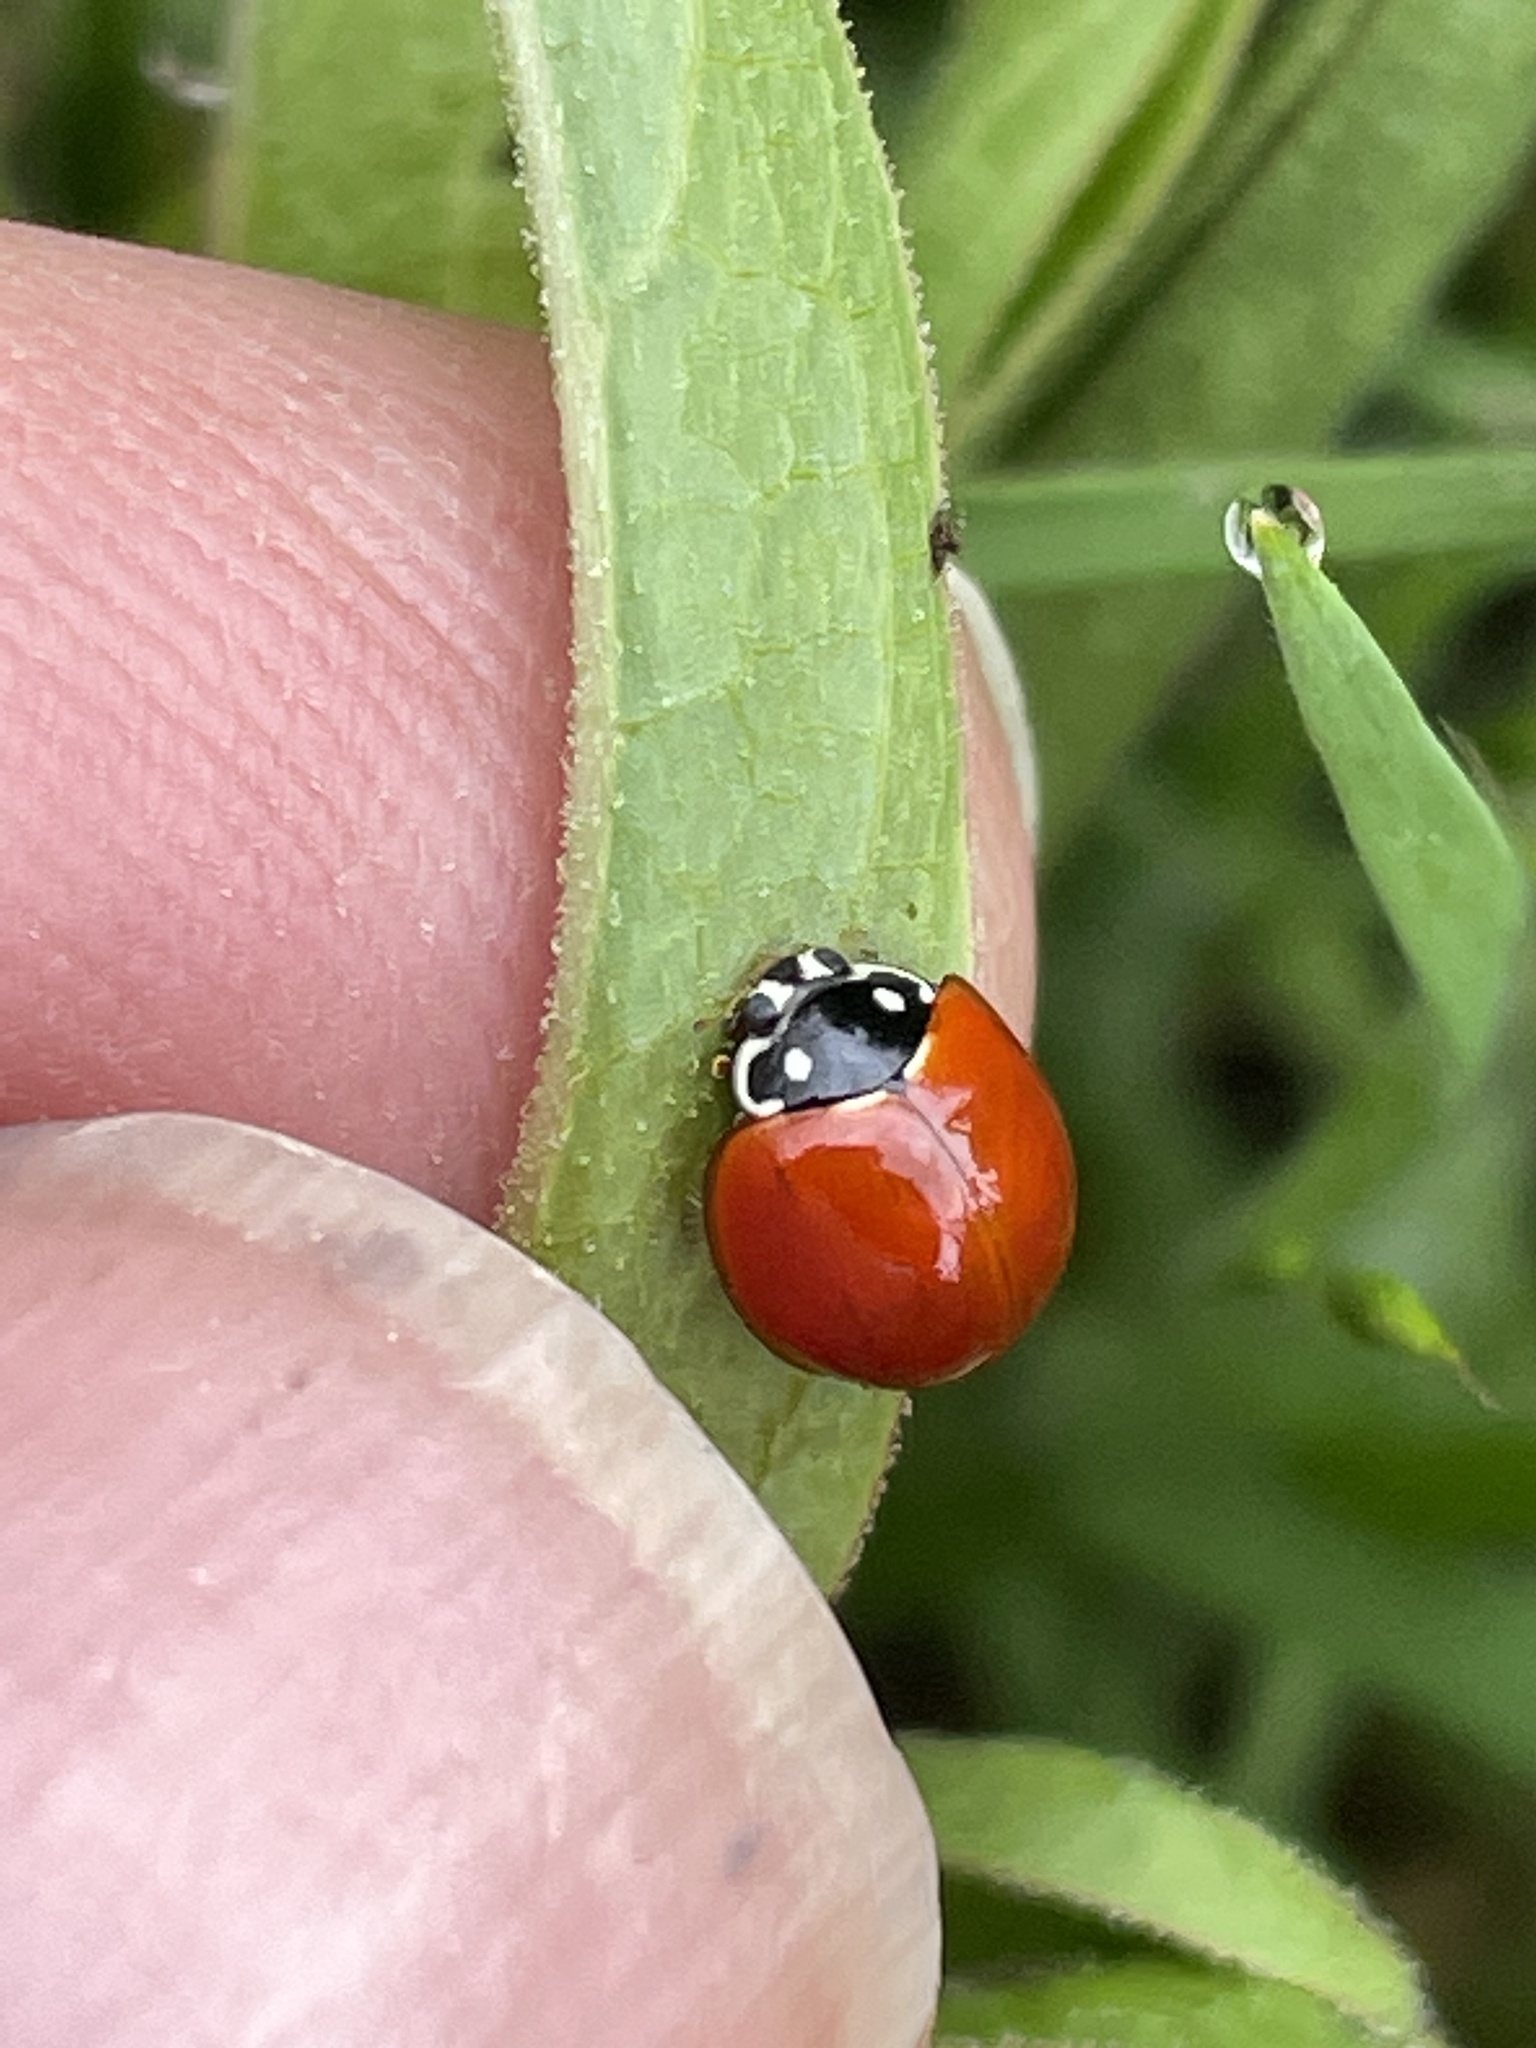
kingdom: Animalia
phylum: Arthropoda
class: Insecta
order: Coleoptera
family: Coccinellidae
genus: Cycloneda
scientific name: Cycloneda sanguinea
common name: Ladybird beetle
